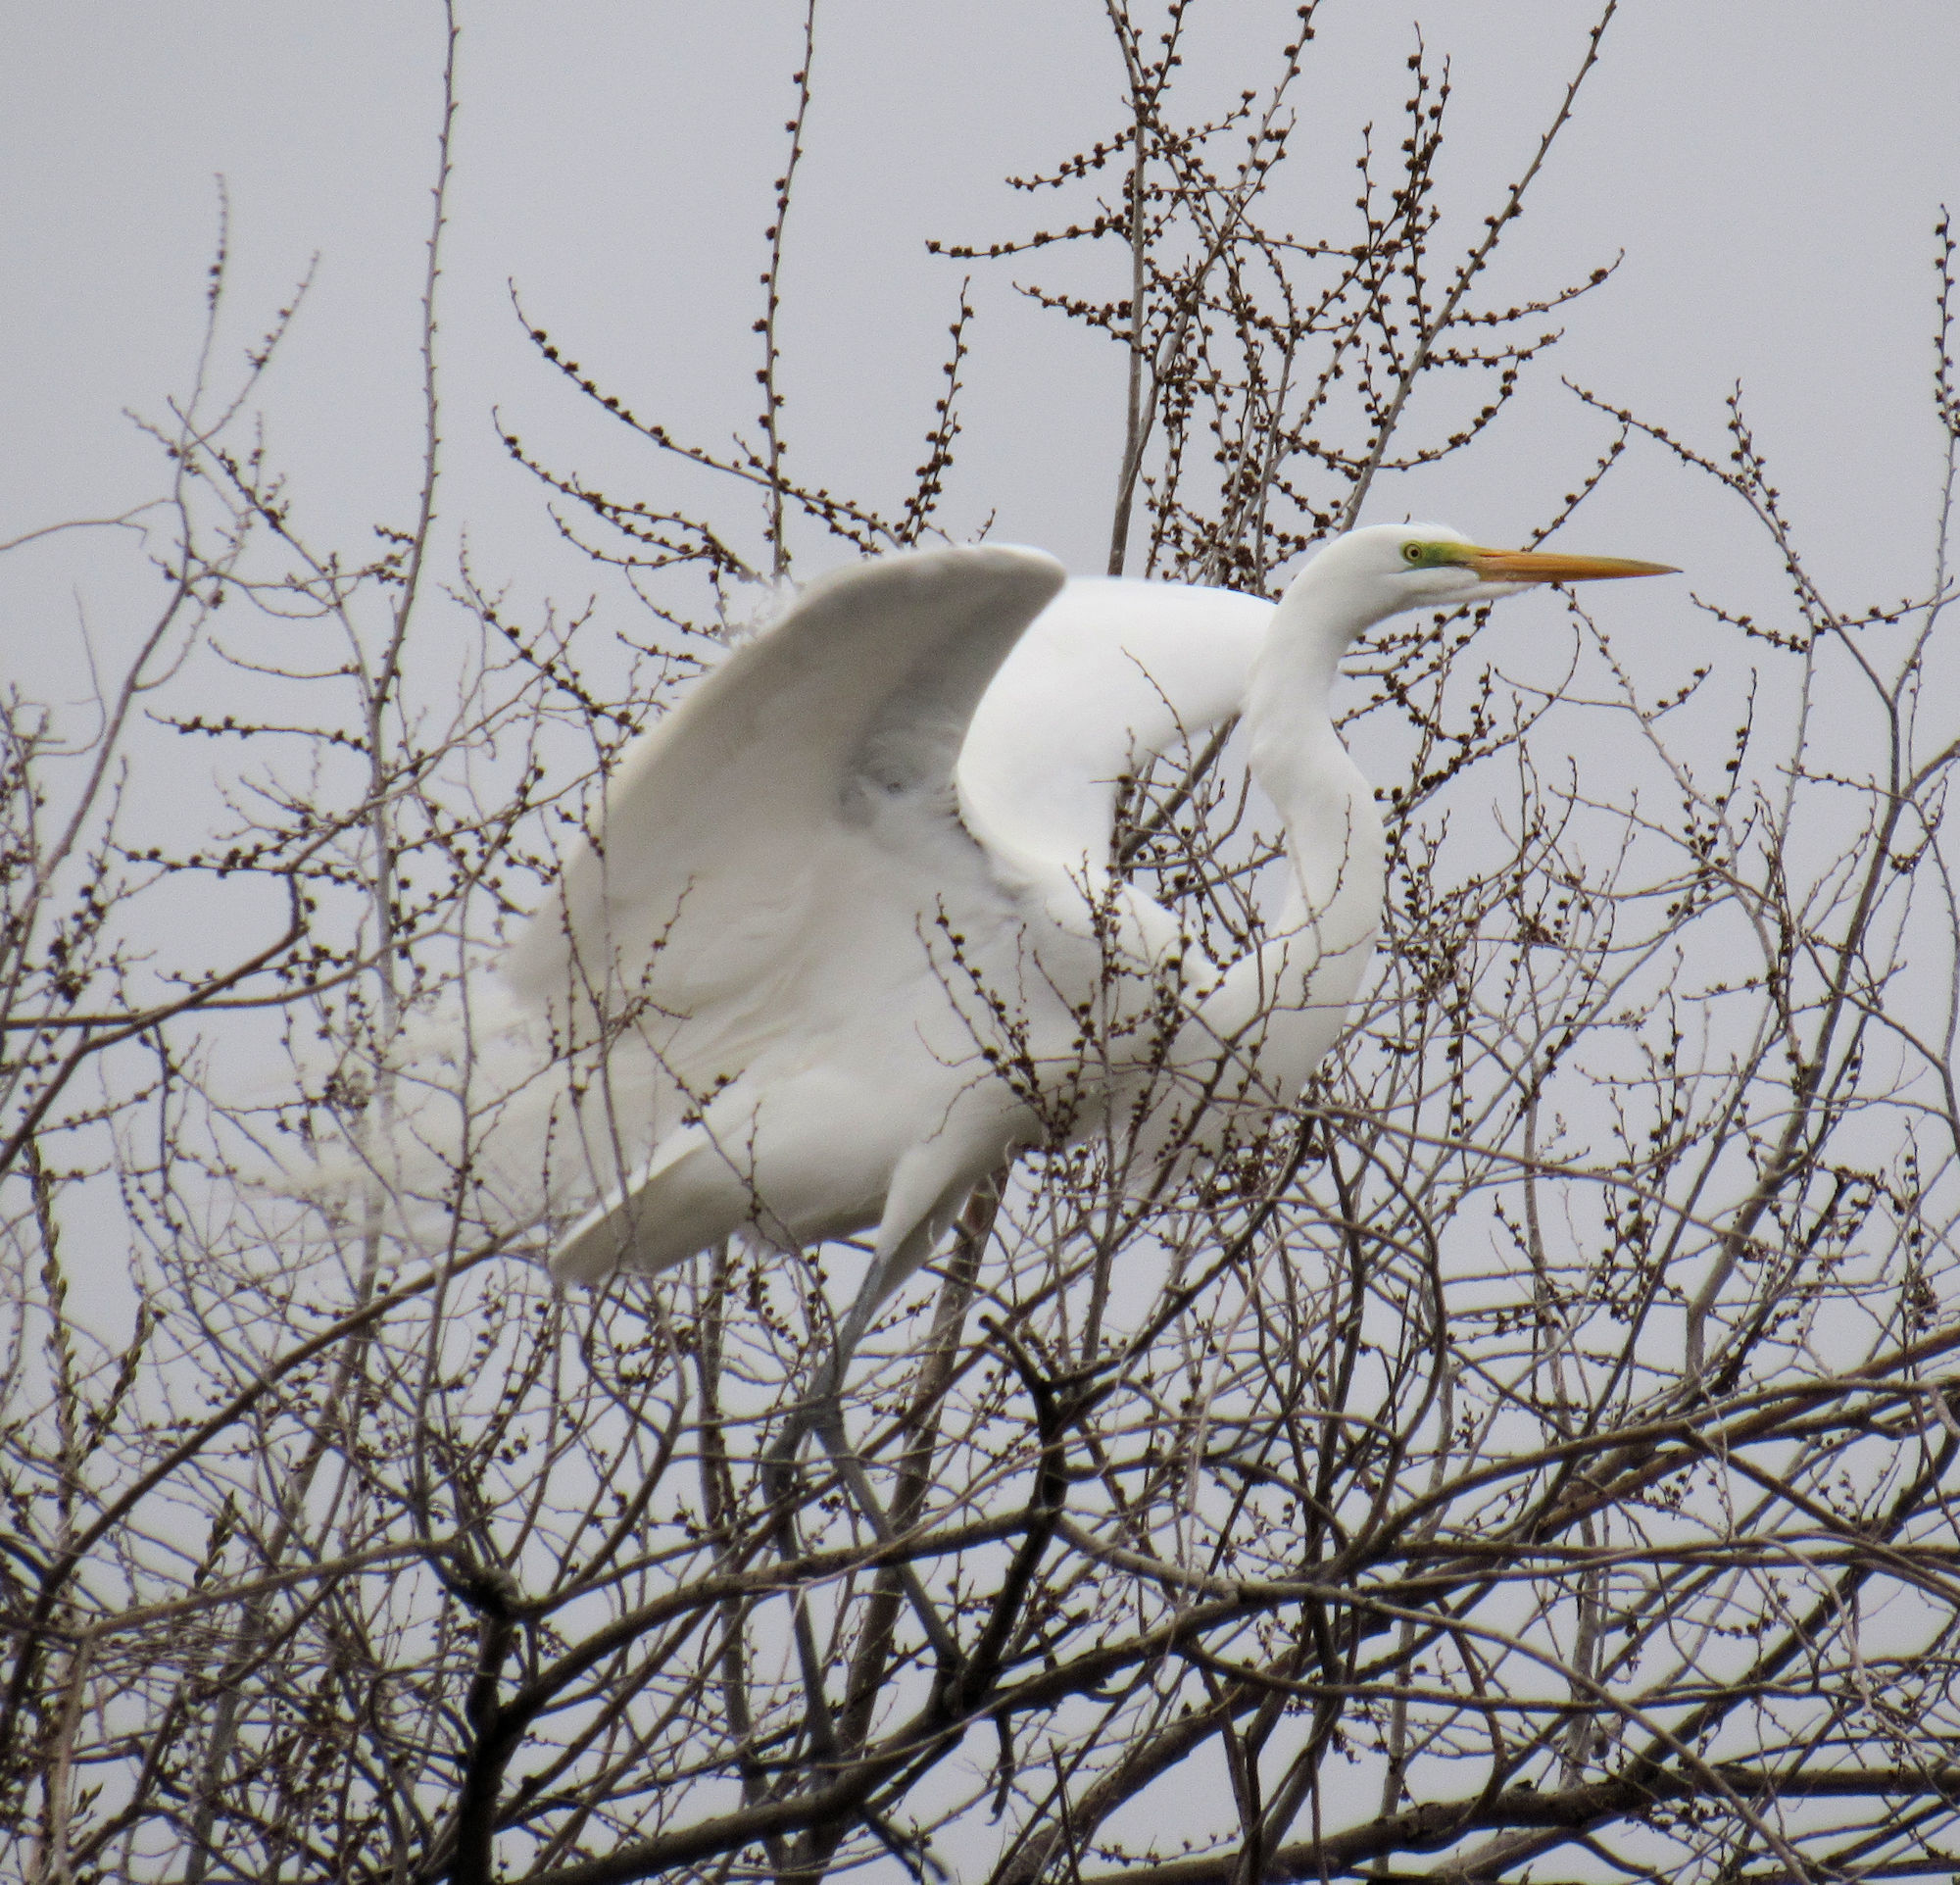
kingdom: Animalia
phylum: Chordata
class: Aves
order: Pelecaniformes
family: Ardeidae
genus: Ardea
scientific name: Ardea alba
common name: Great egret
